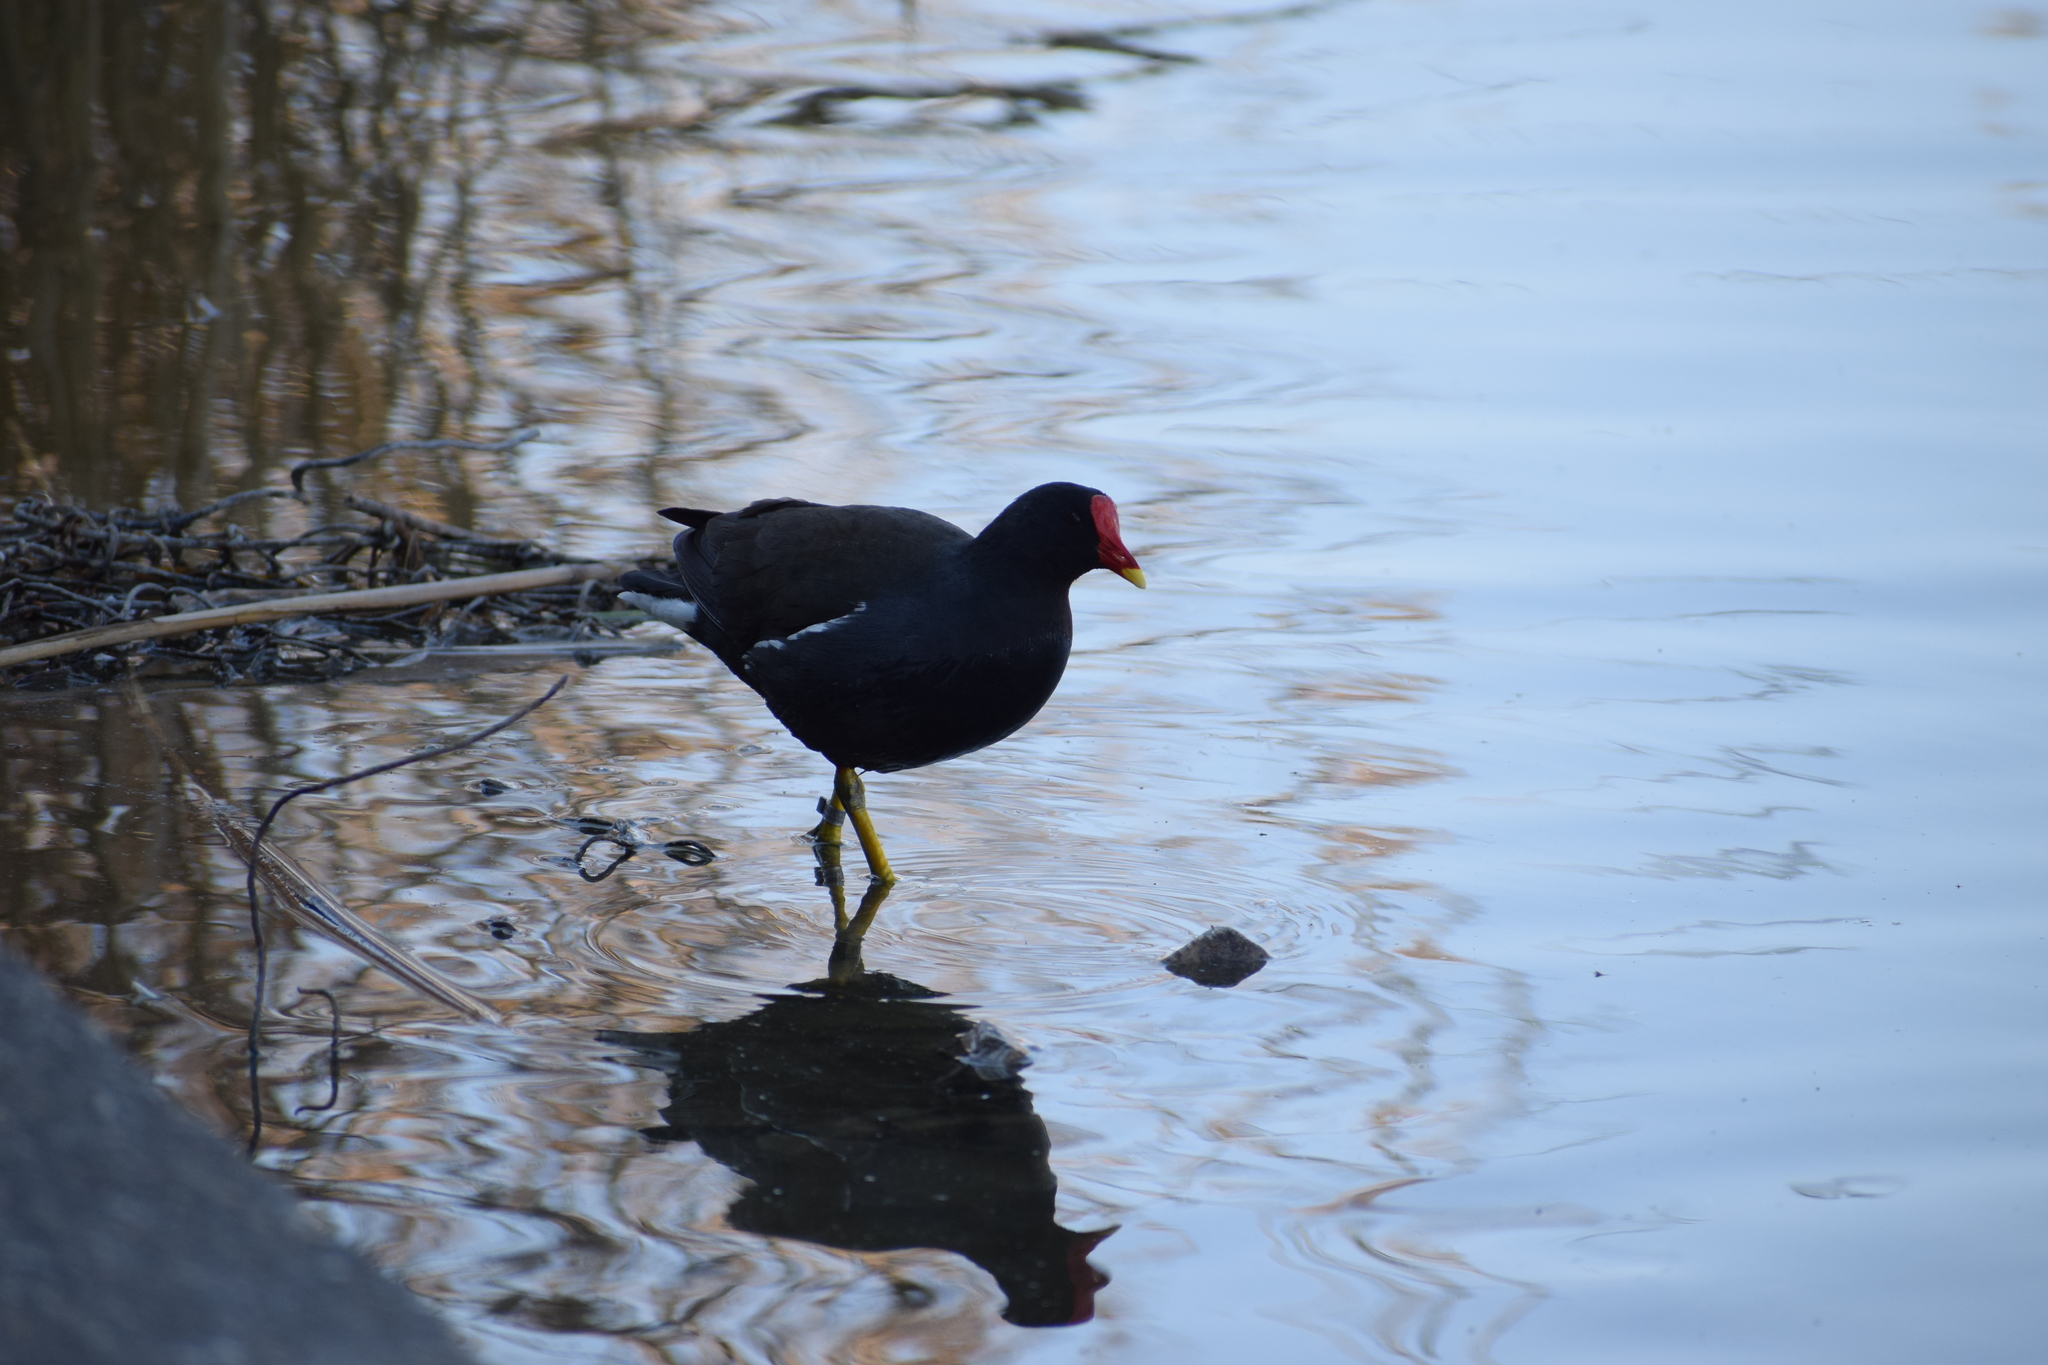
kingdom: Animalia
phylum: Chordata
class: Aves
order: Gruiformes
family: Rallidae
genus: Gallinula
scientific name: Gallinula chloropus
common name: Common moorhen
